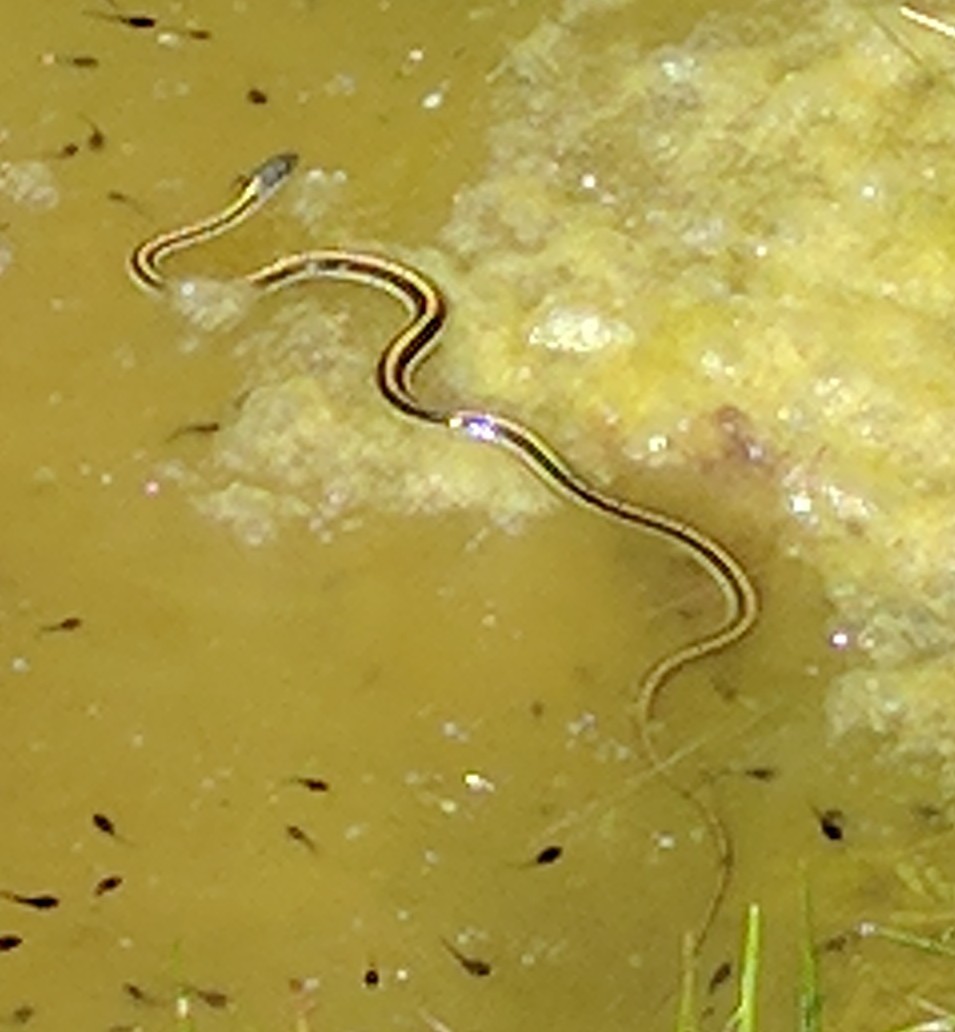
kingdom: Animalia
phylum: Chordata
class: Squamata
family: Colubridae
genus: Thamnophis
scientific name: Thamnophis atratus
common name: Pacific coast aquatic garter snake
